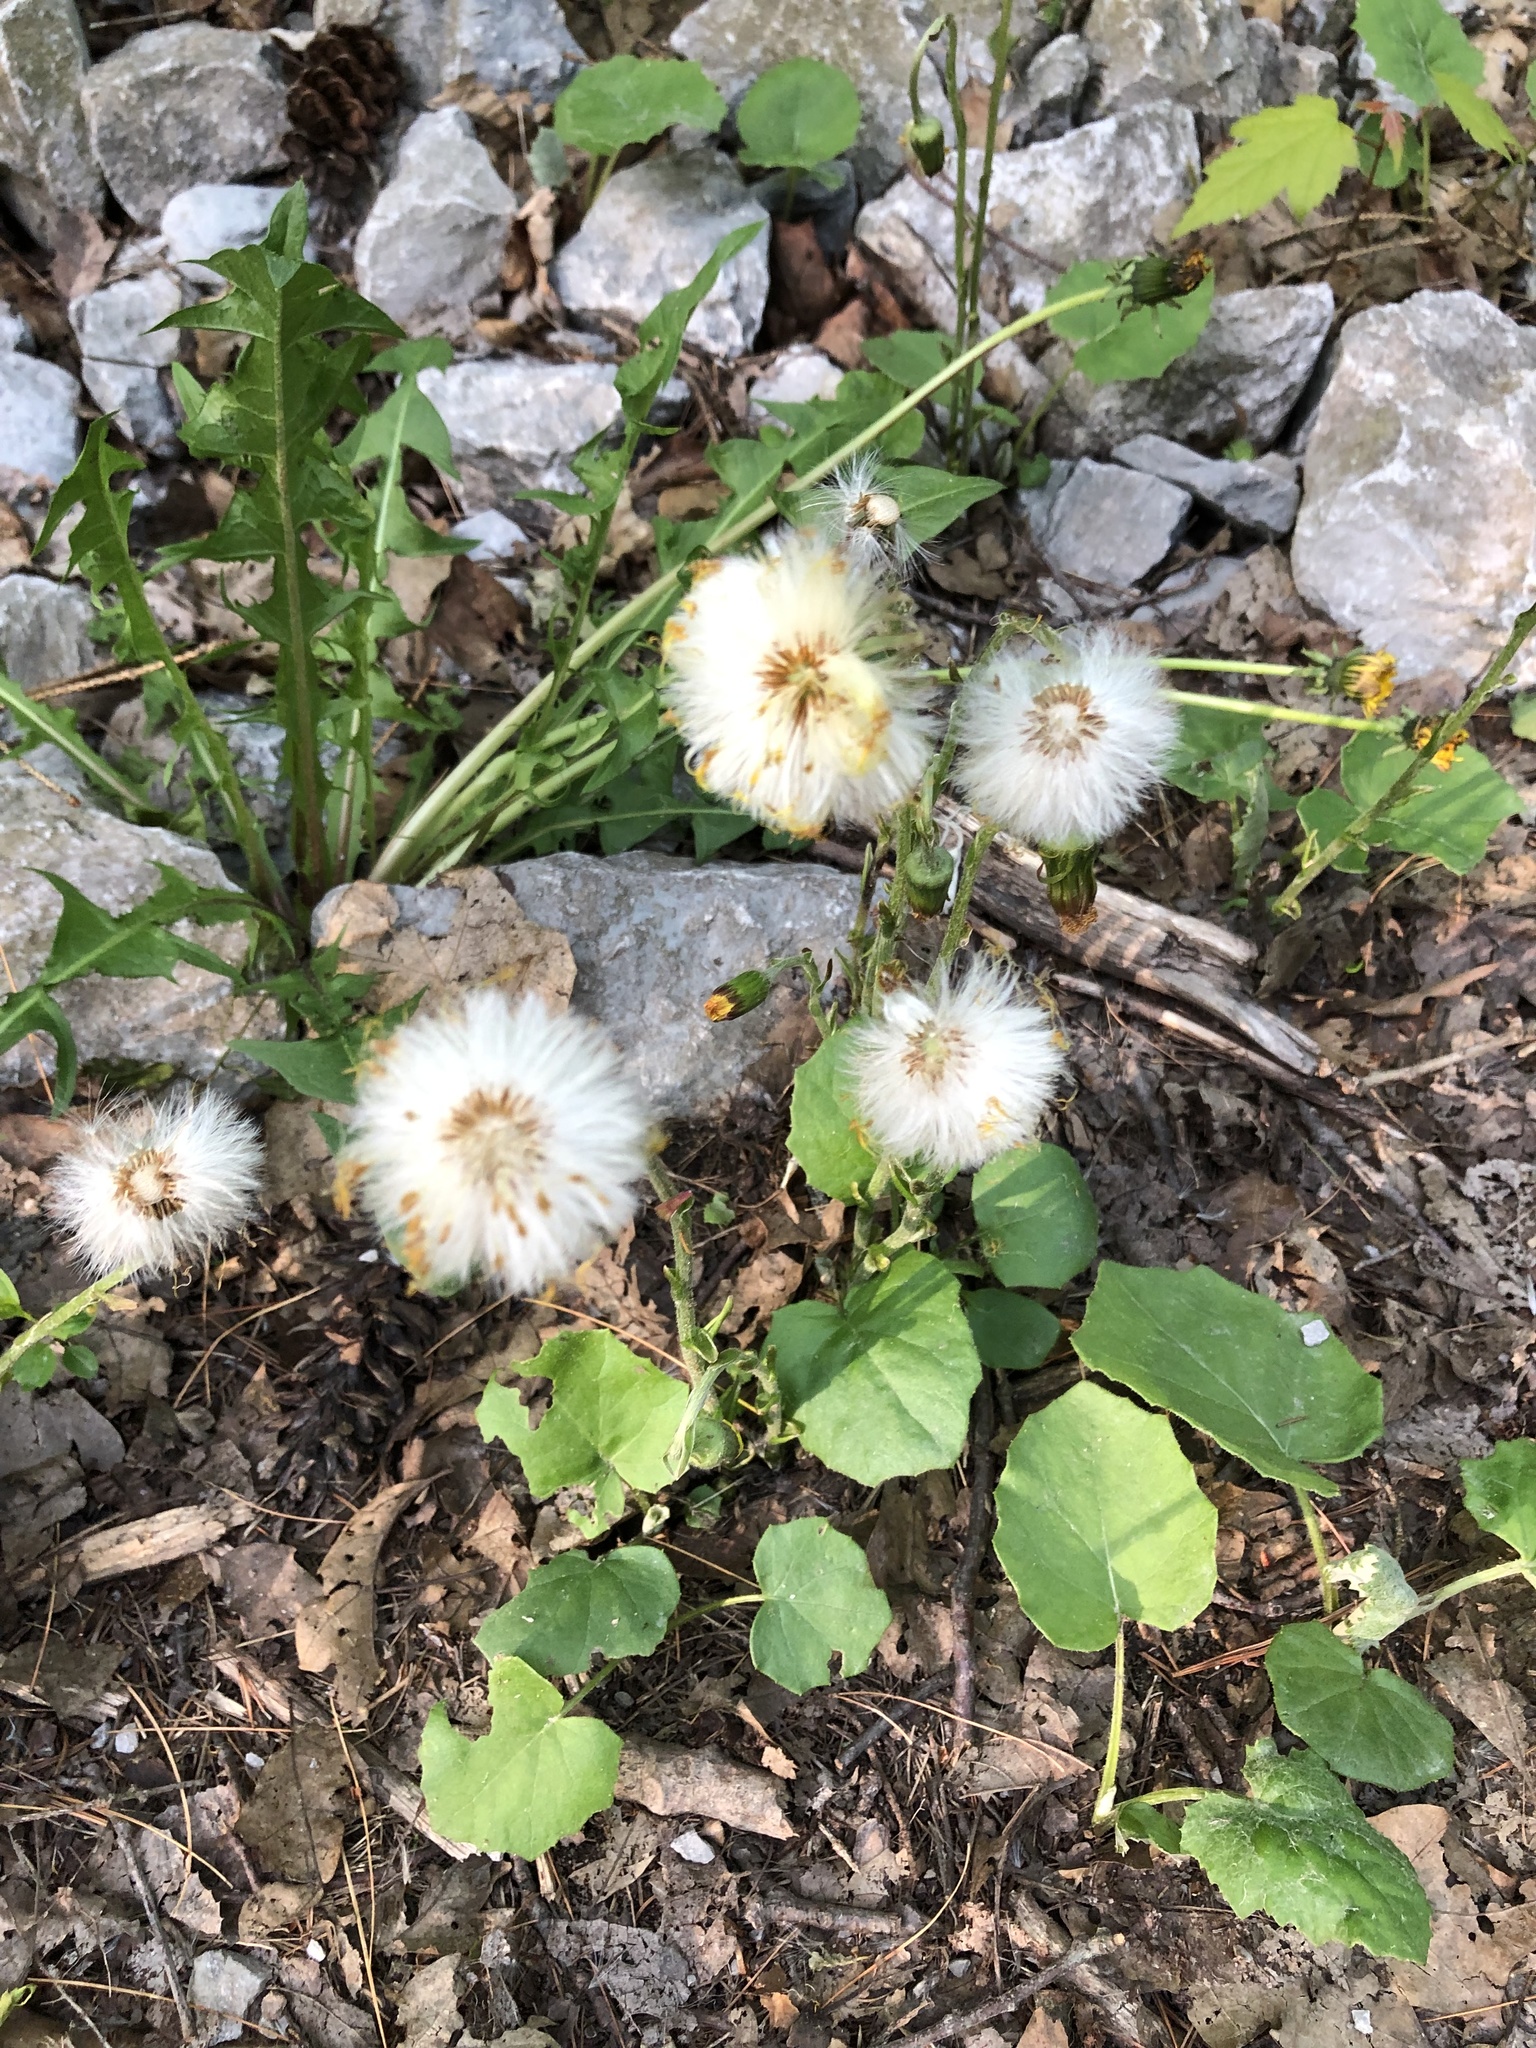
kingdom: Plantae
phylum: Tracheophyta
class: Magnoliopsida
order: Asterales
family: Asteraceae
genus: Tussilago
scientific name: Tussilago farfara
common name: Coltsfoot
